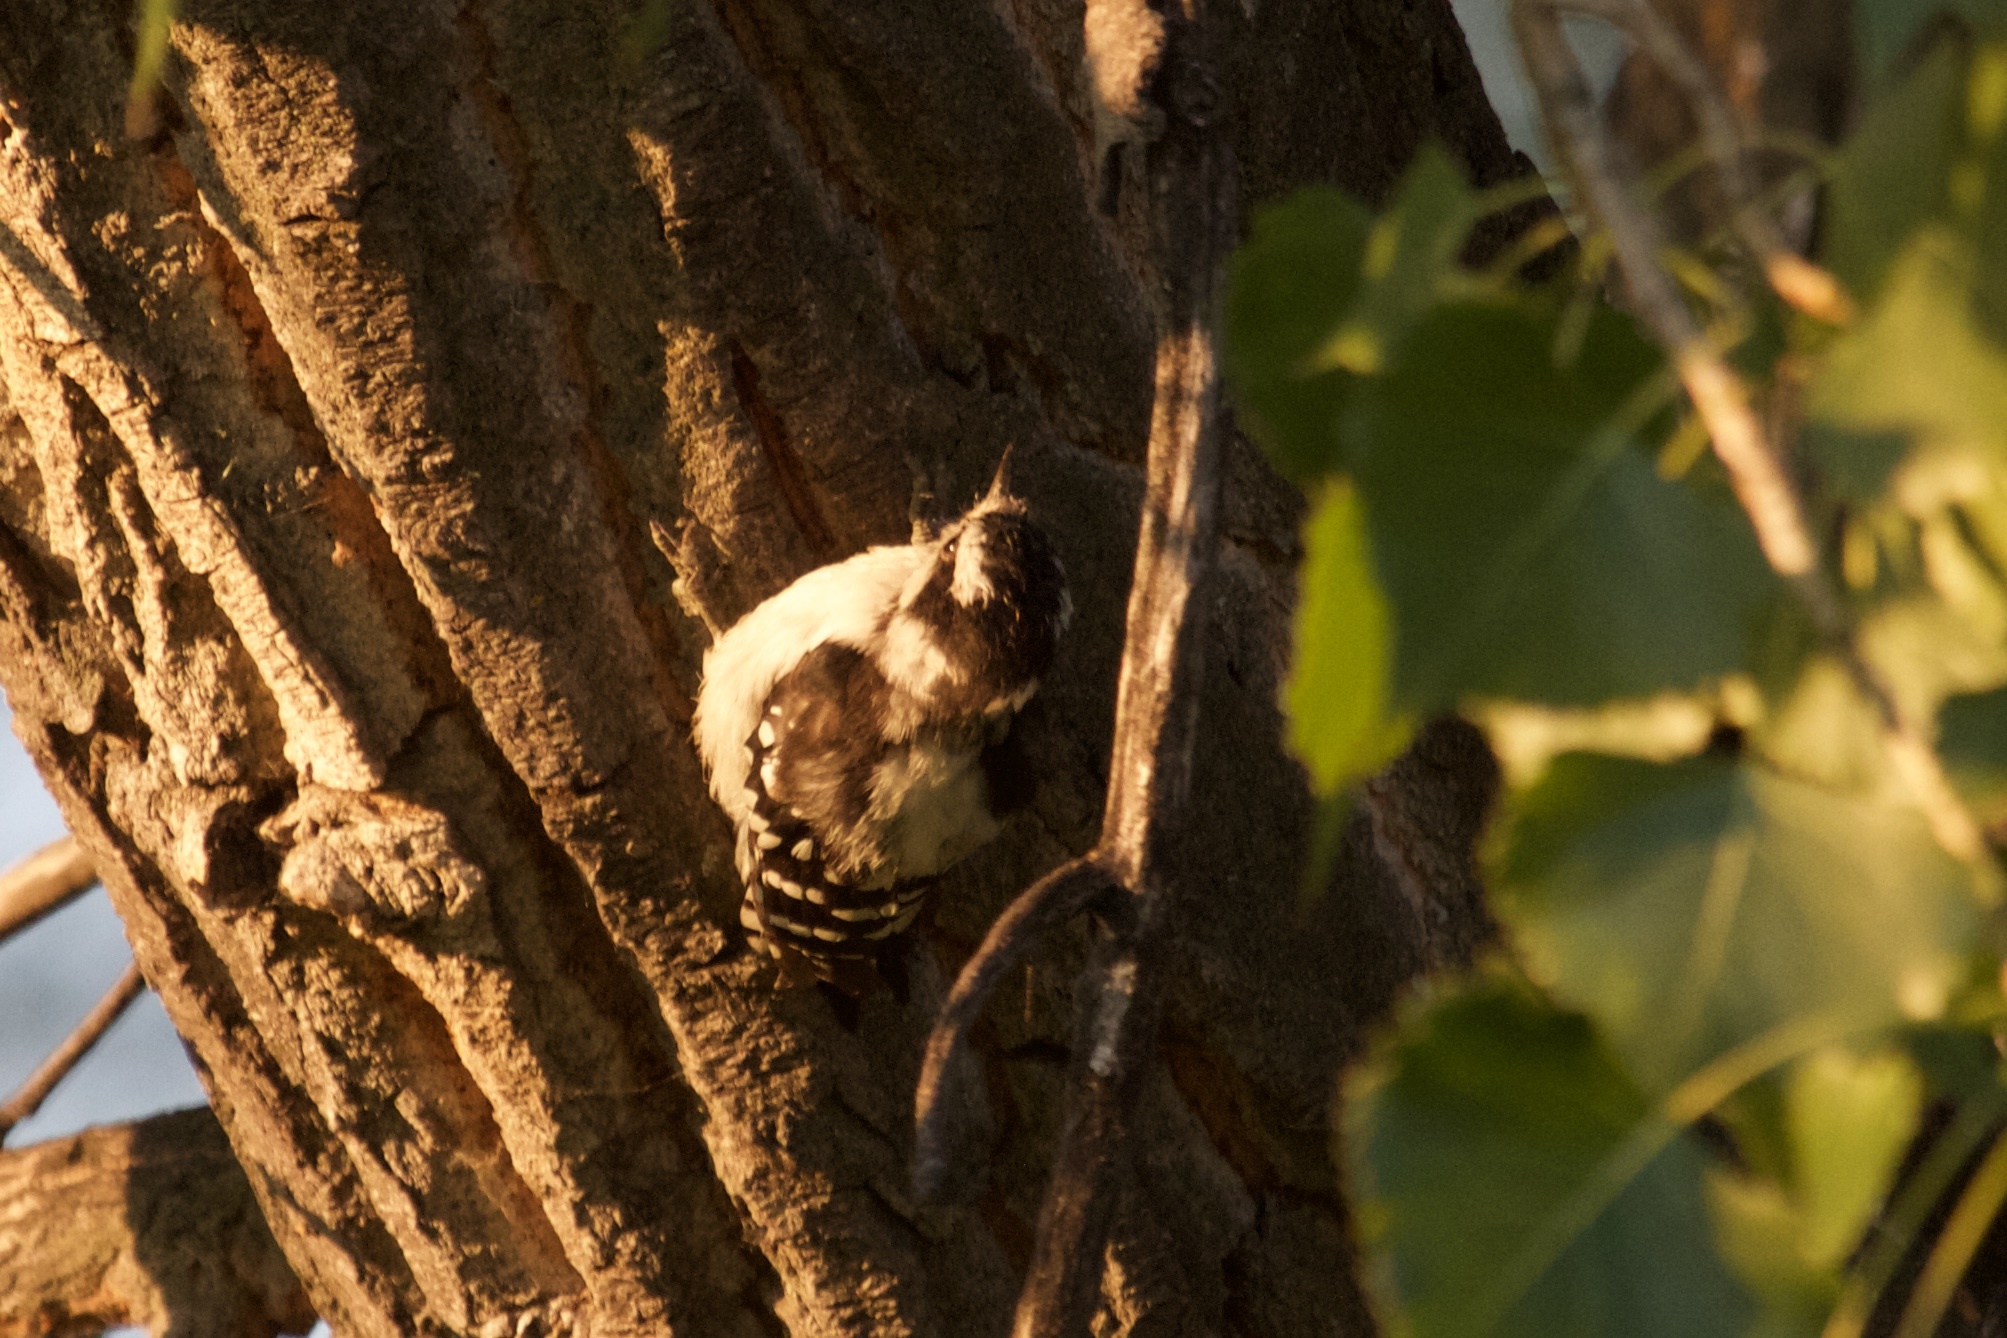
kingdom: Animalia
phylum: Chordata
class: Aves
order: Piciformes
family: Picidae
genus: Dryobates
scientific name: Dryobates pubescens
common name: Downy woodpecker
